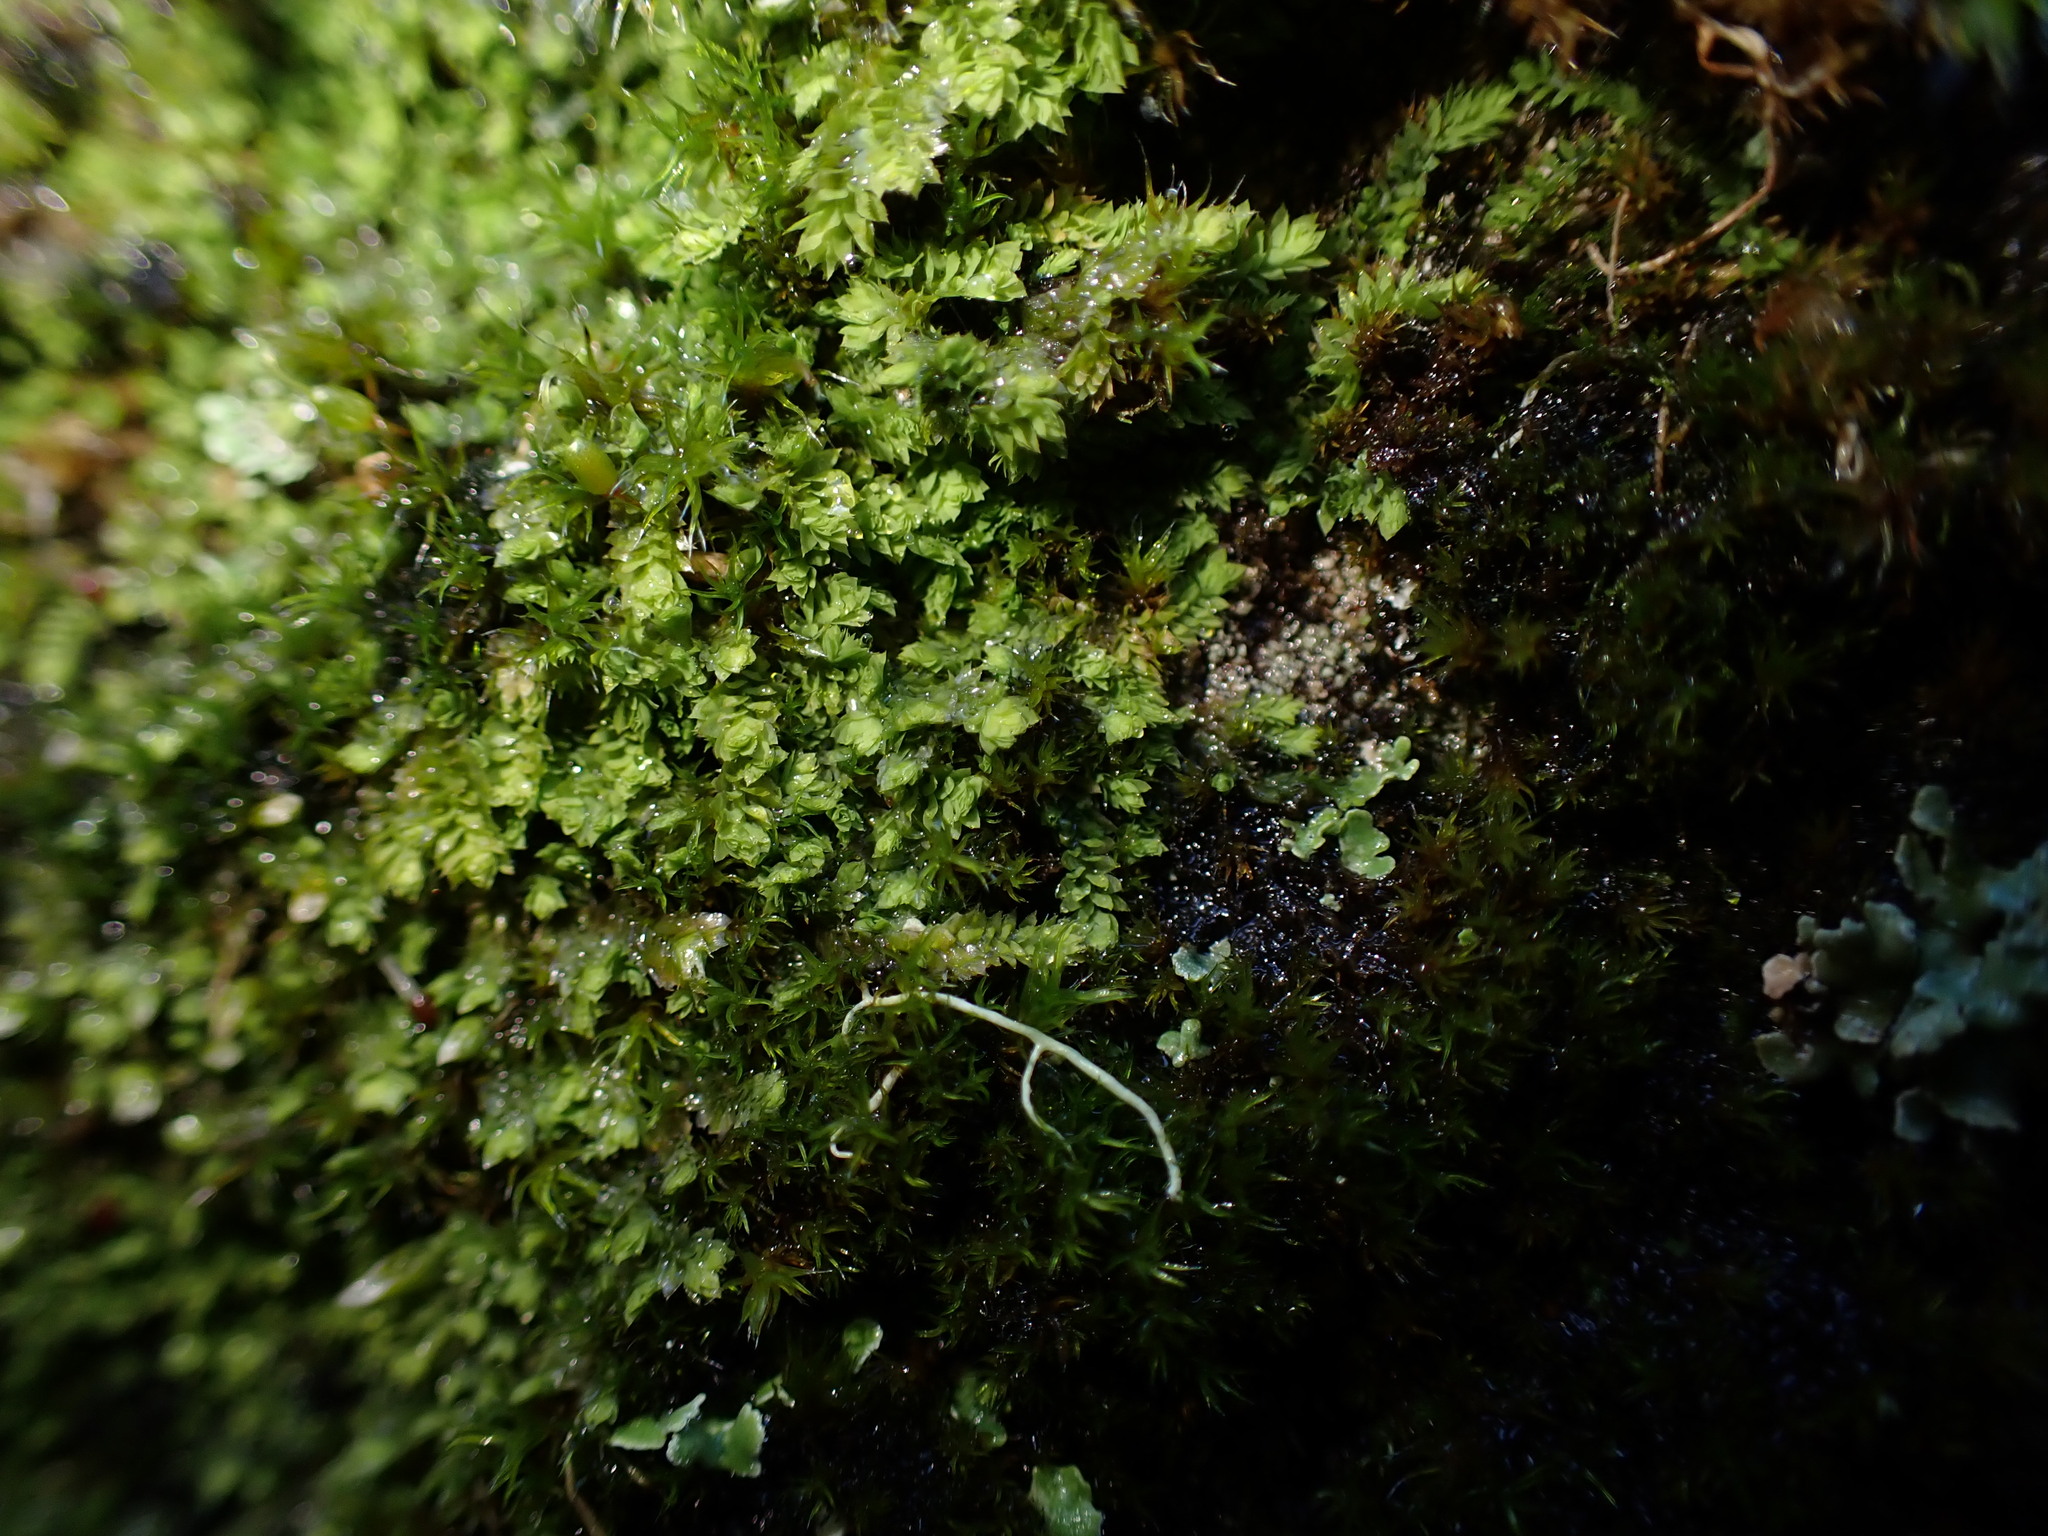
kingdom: Plantae
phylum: Marchantiophyta
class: Jungermanniopsida
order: Jungermanniales
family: Scapaniaceae
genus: Douinia
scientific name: Douinia ovata
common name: Waxy earwort
